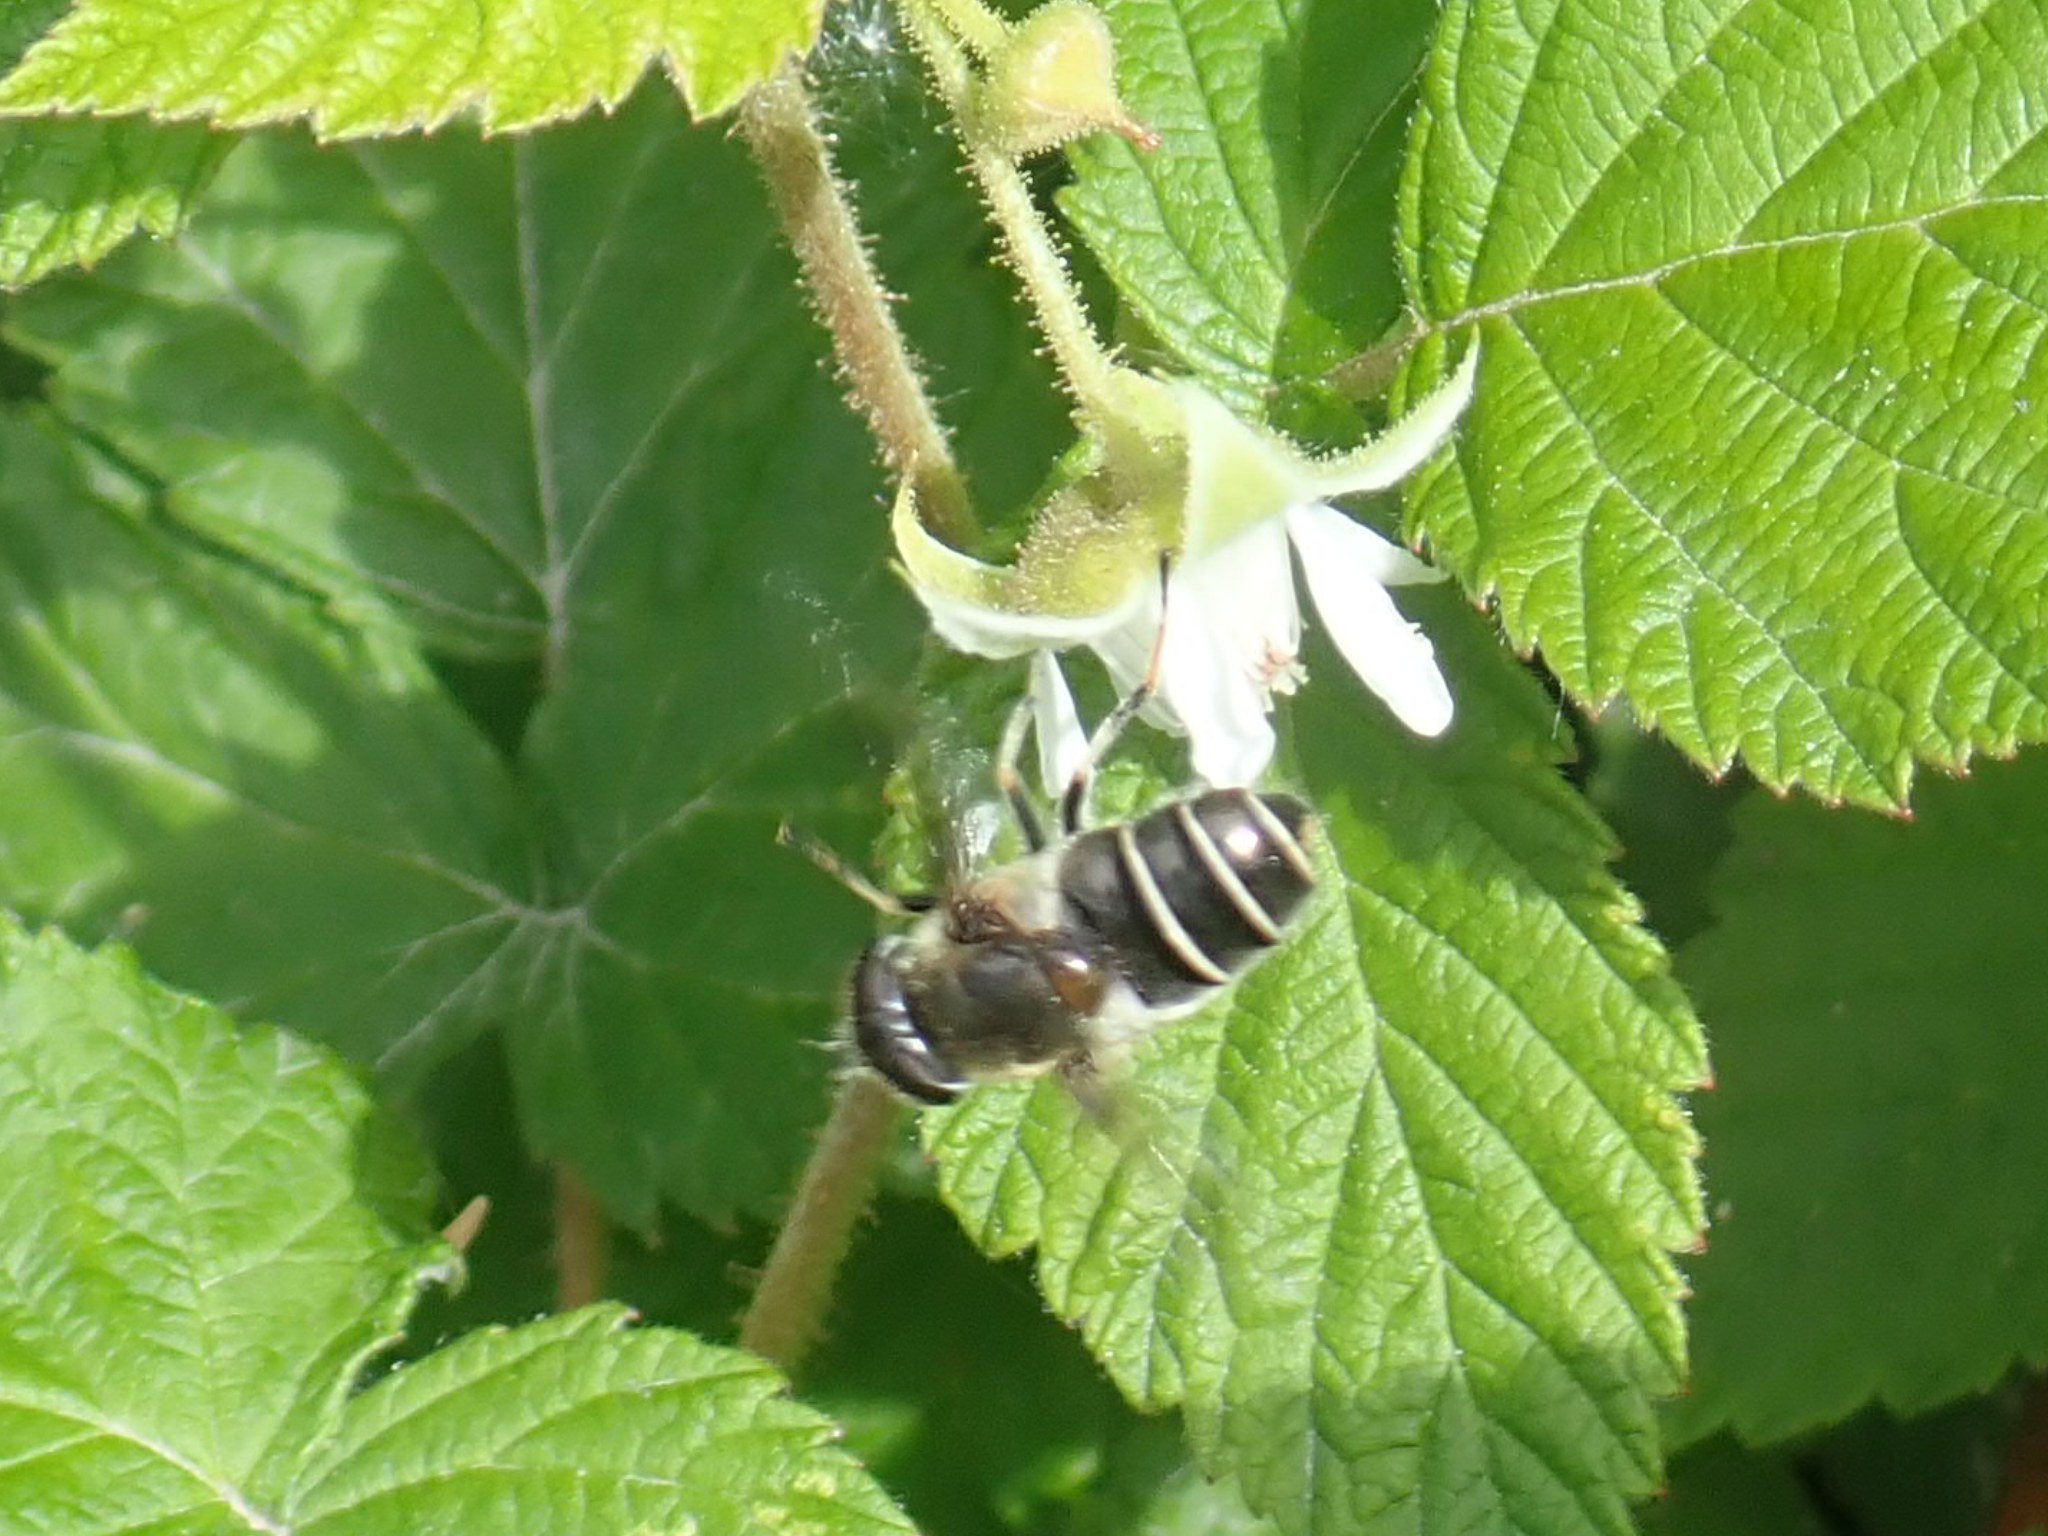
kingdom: Animalia
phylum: Arthropoda
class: Insecta
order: Diptera
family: Syrphidae
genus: Eristalis
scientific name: Eristalis obscura
